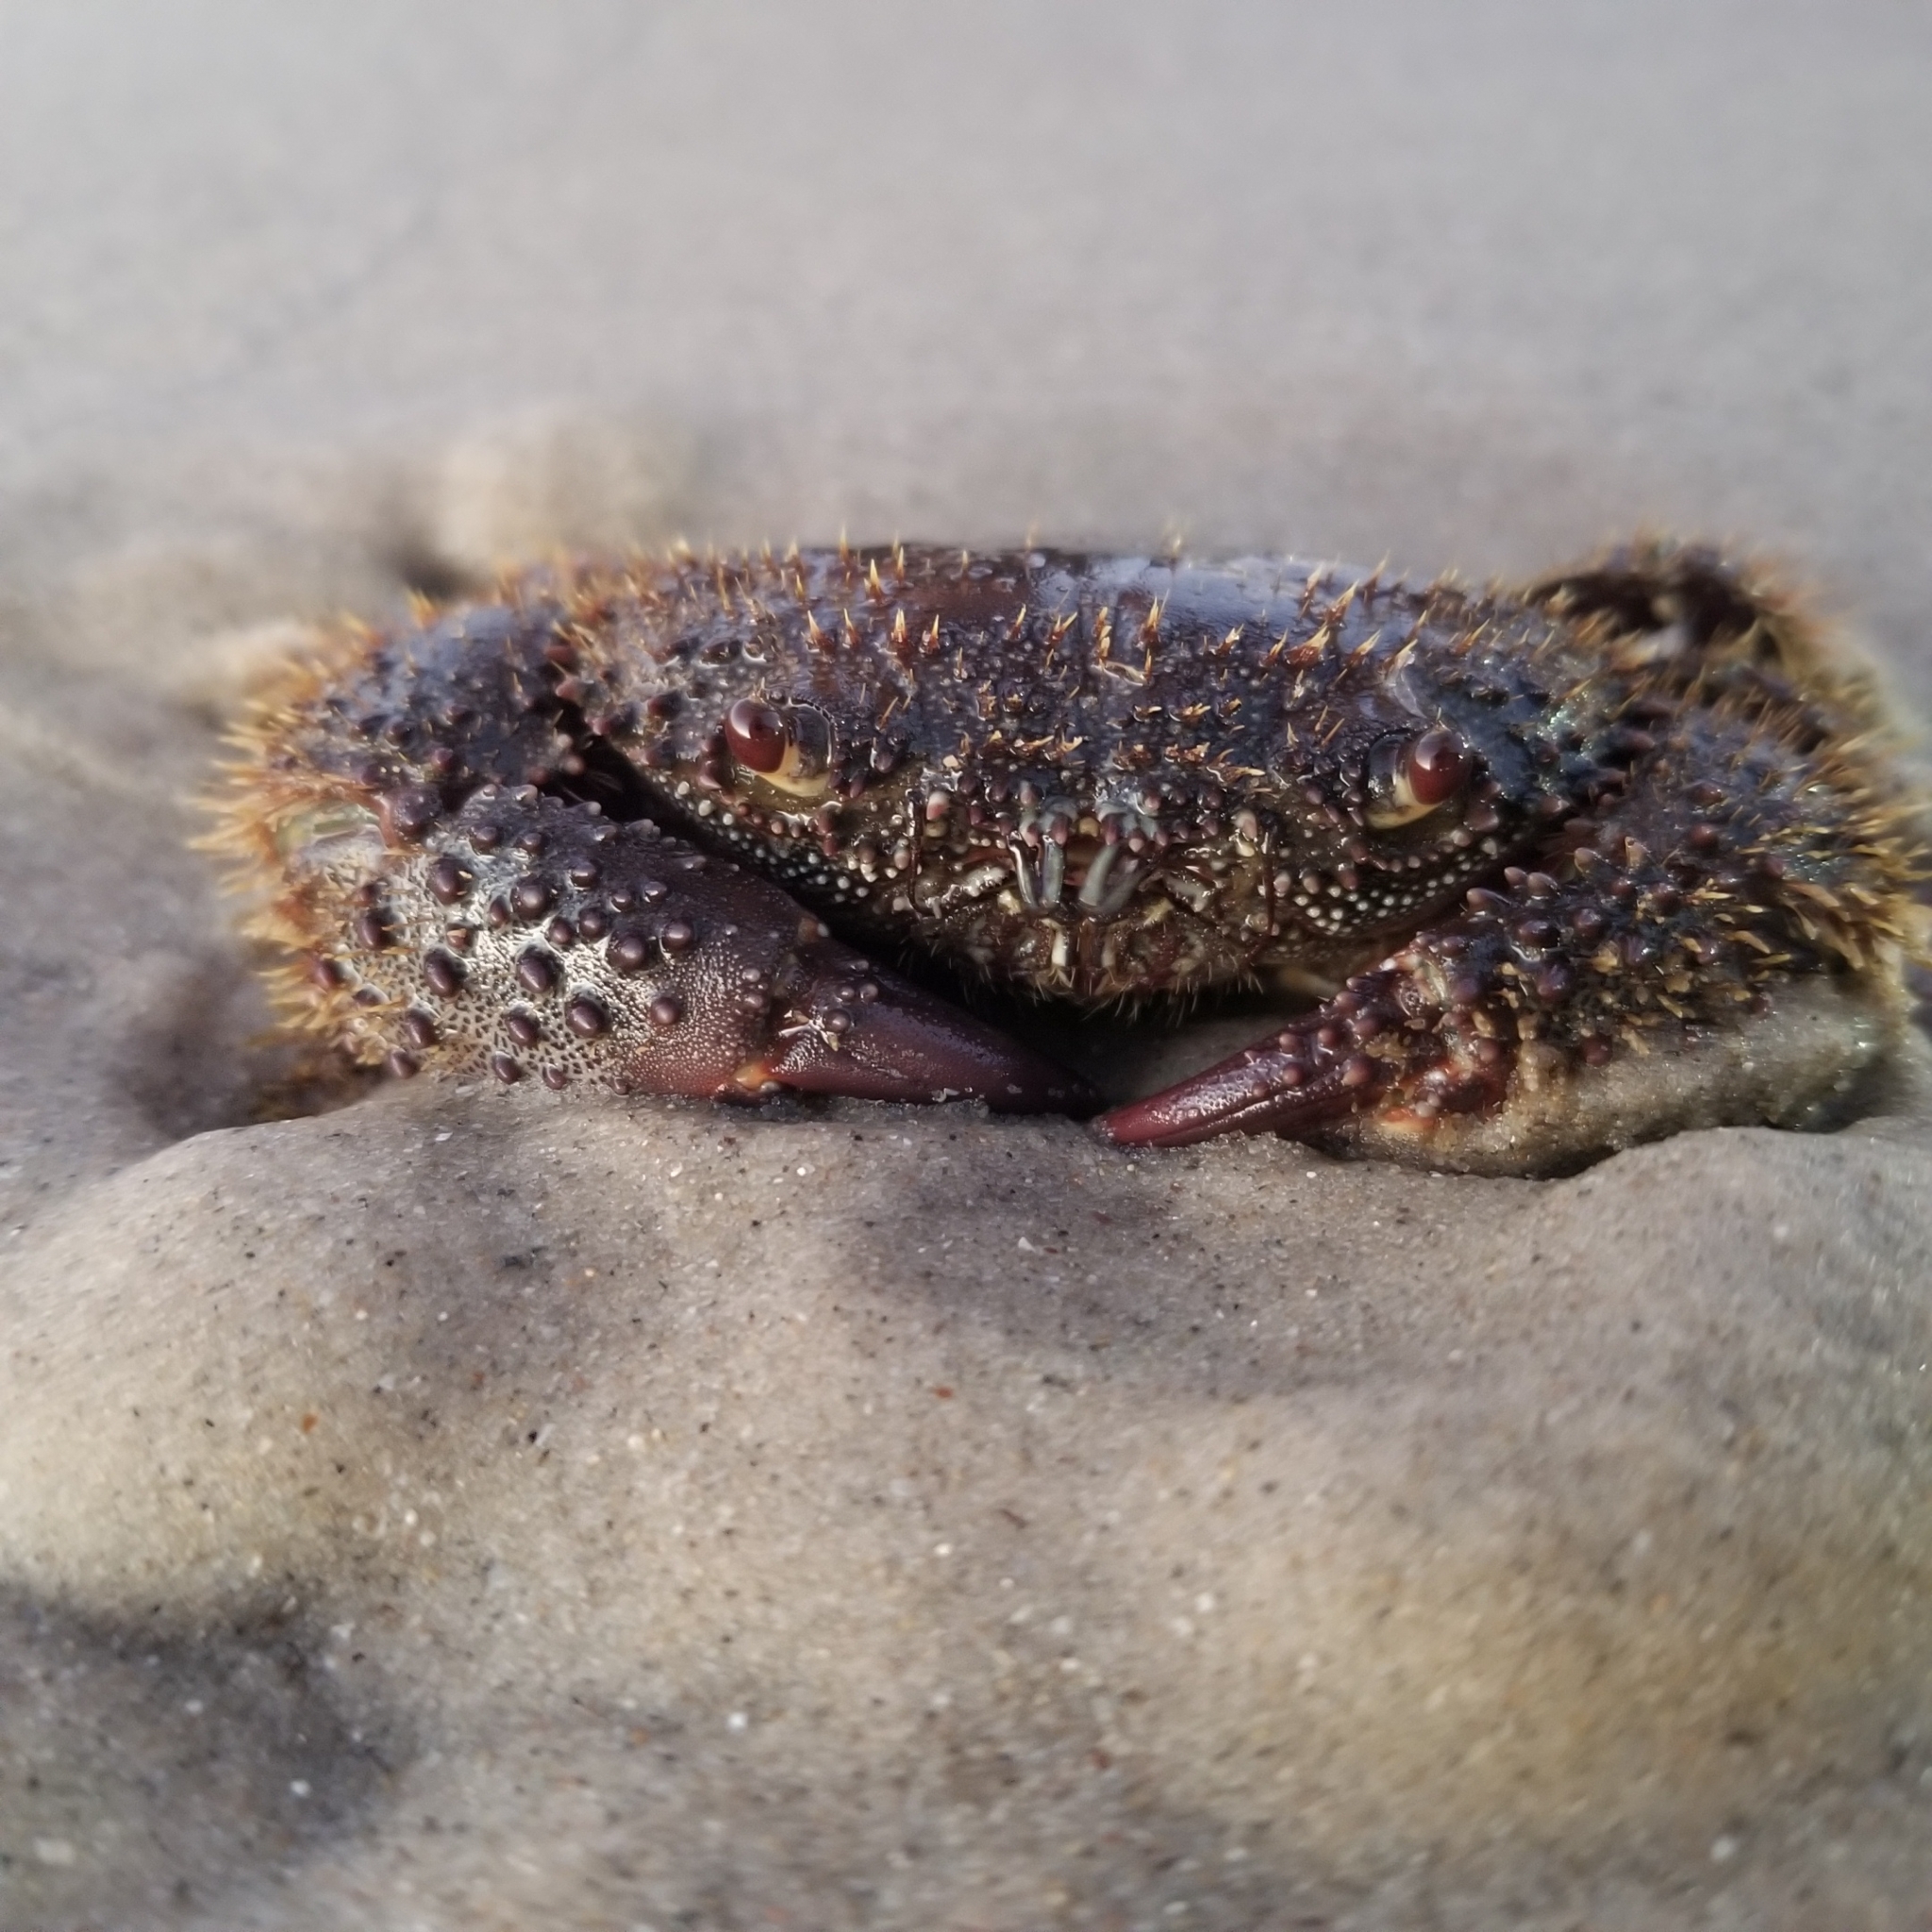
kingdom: Animalia
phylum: Arthropoda
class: Malacostraca
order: Decapoda
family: Eriphiidae
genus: Eriphia
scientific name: Eriphia verrucosa
